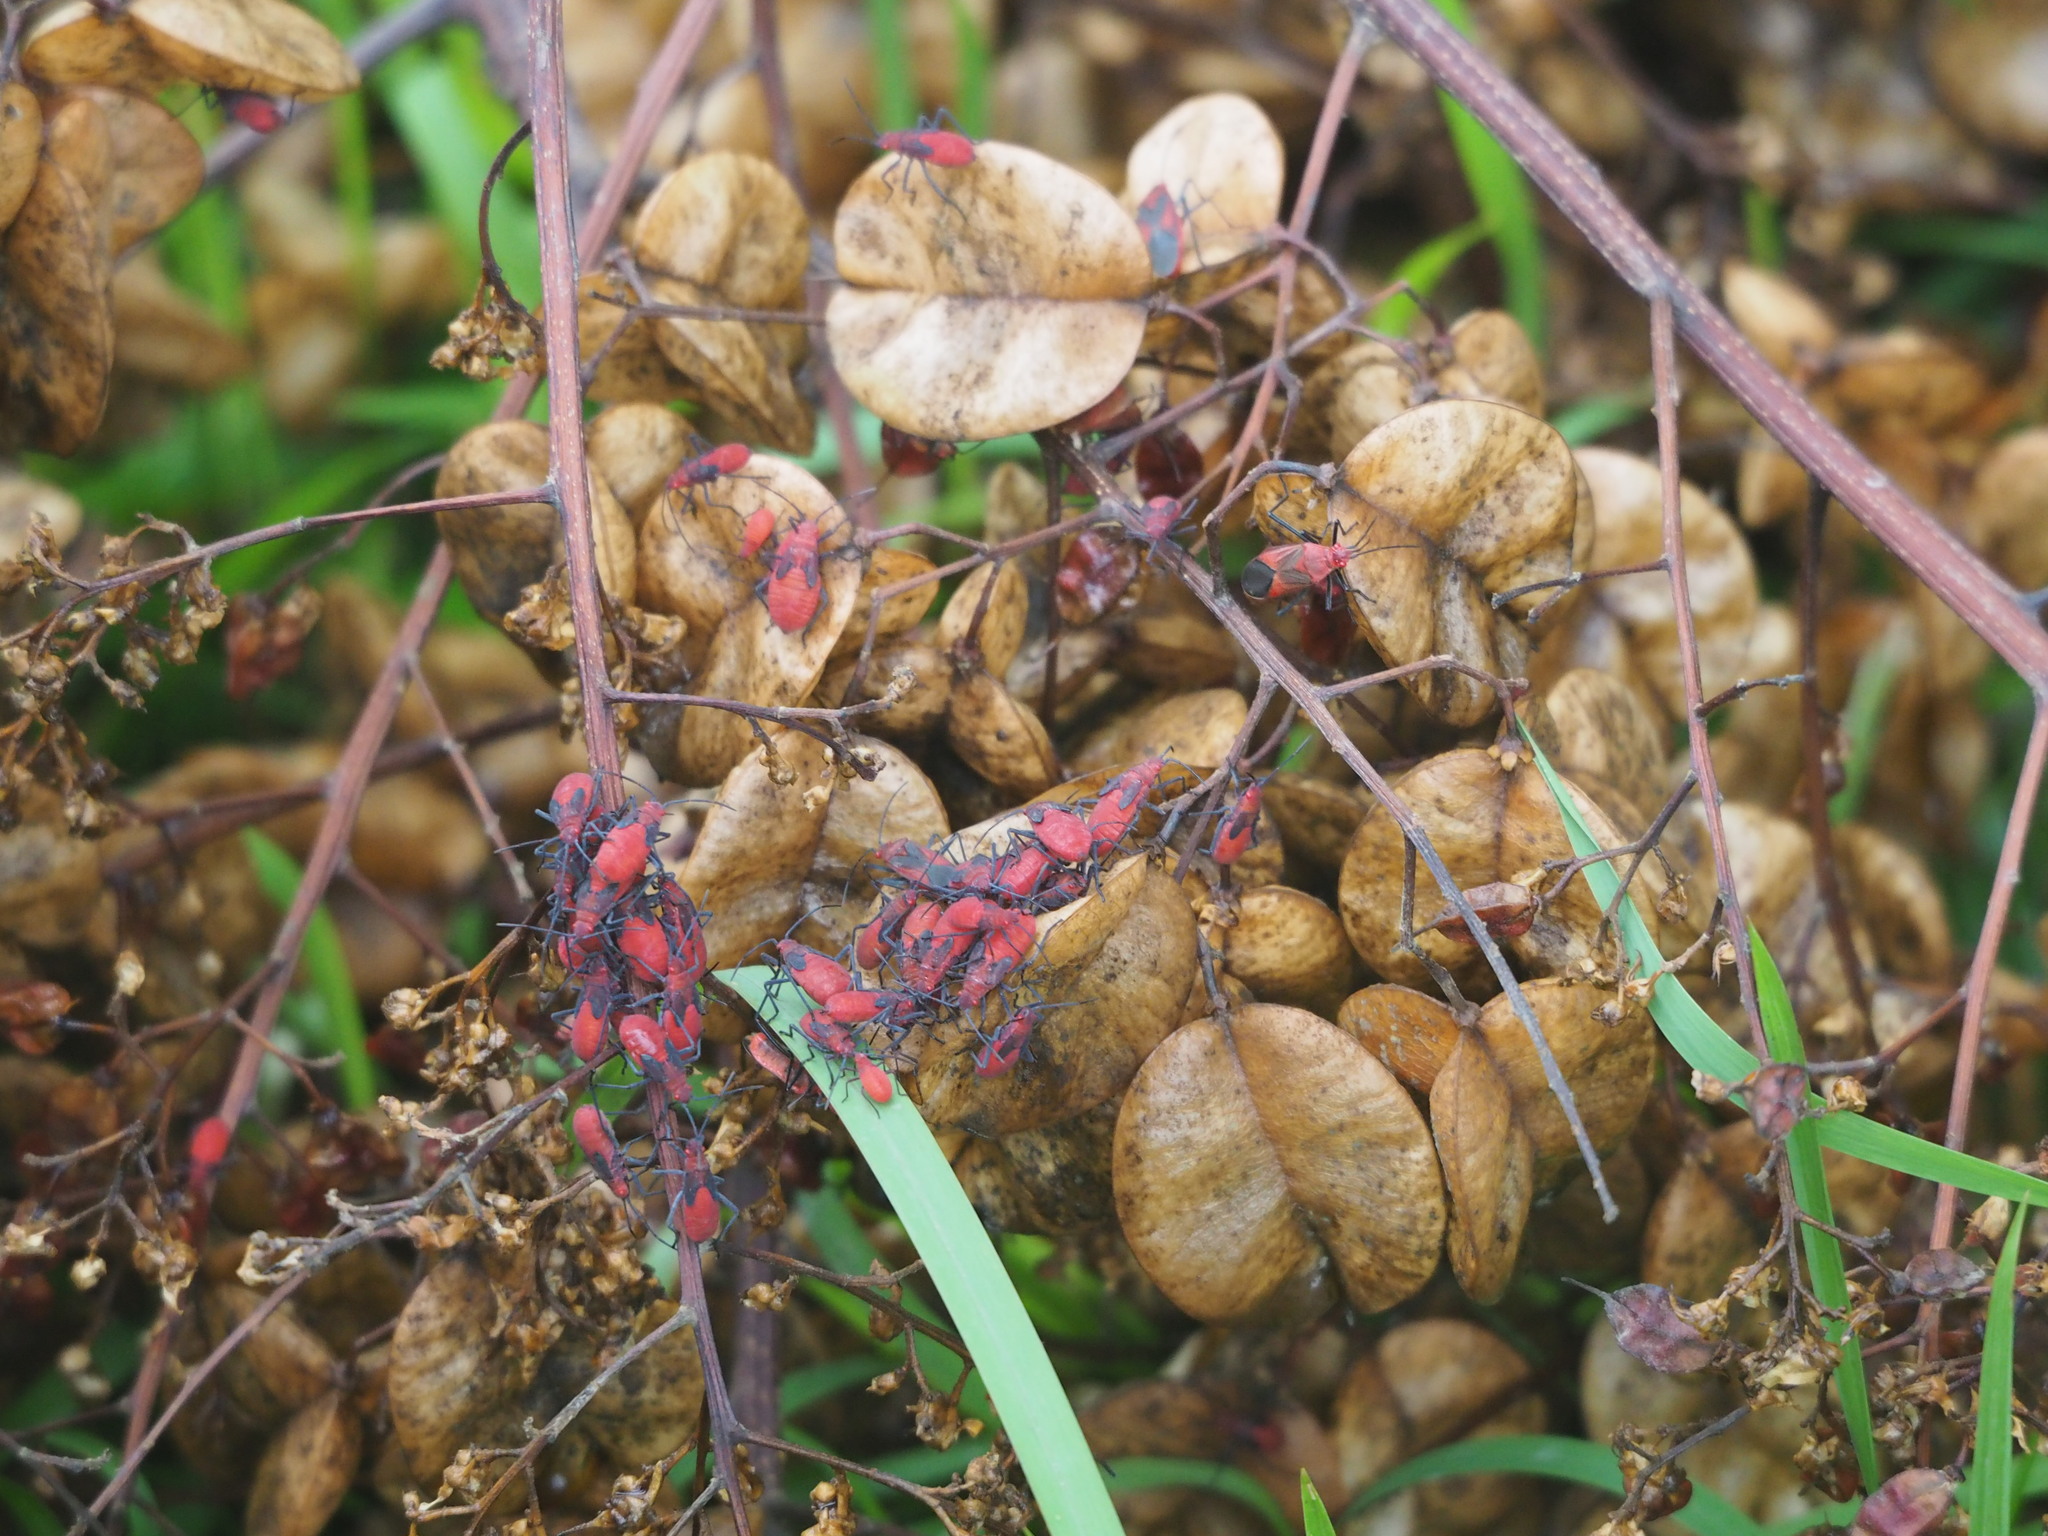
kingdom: Animalia
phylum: Arthropoda
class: Insecta
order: Hemiptera
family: Rhopalidae
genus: Leptocoris
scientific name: Leptocoris vicinus
